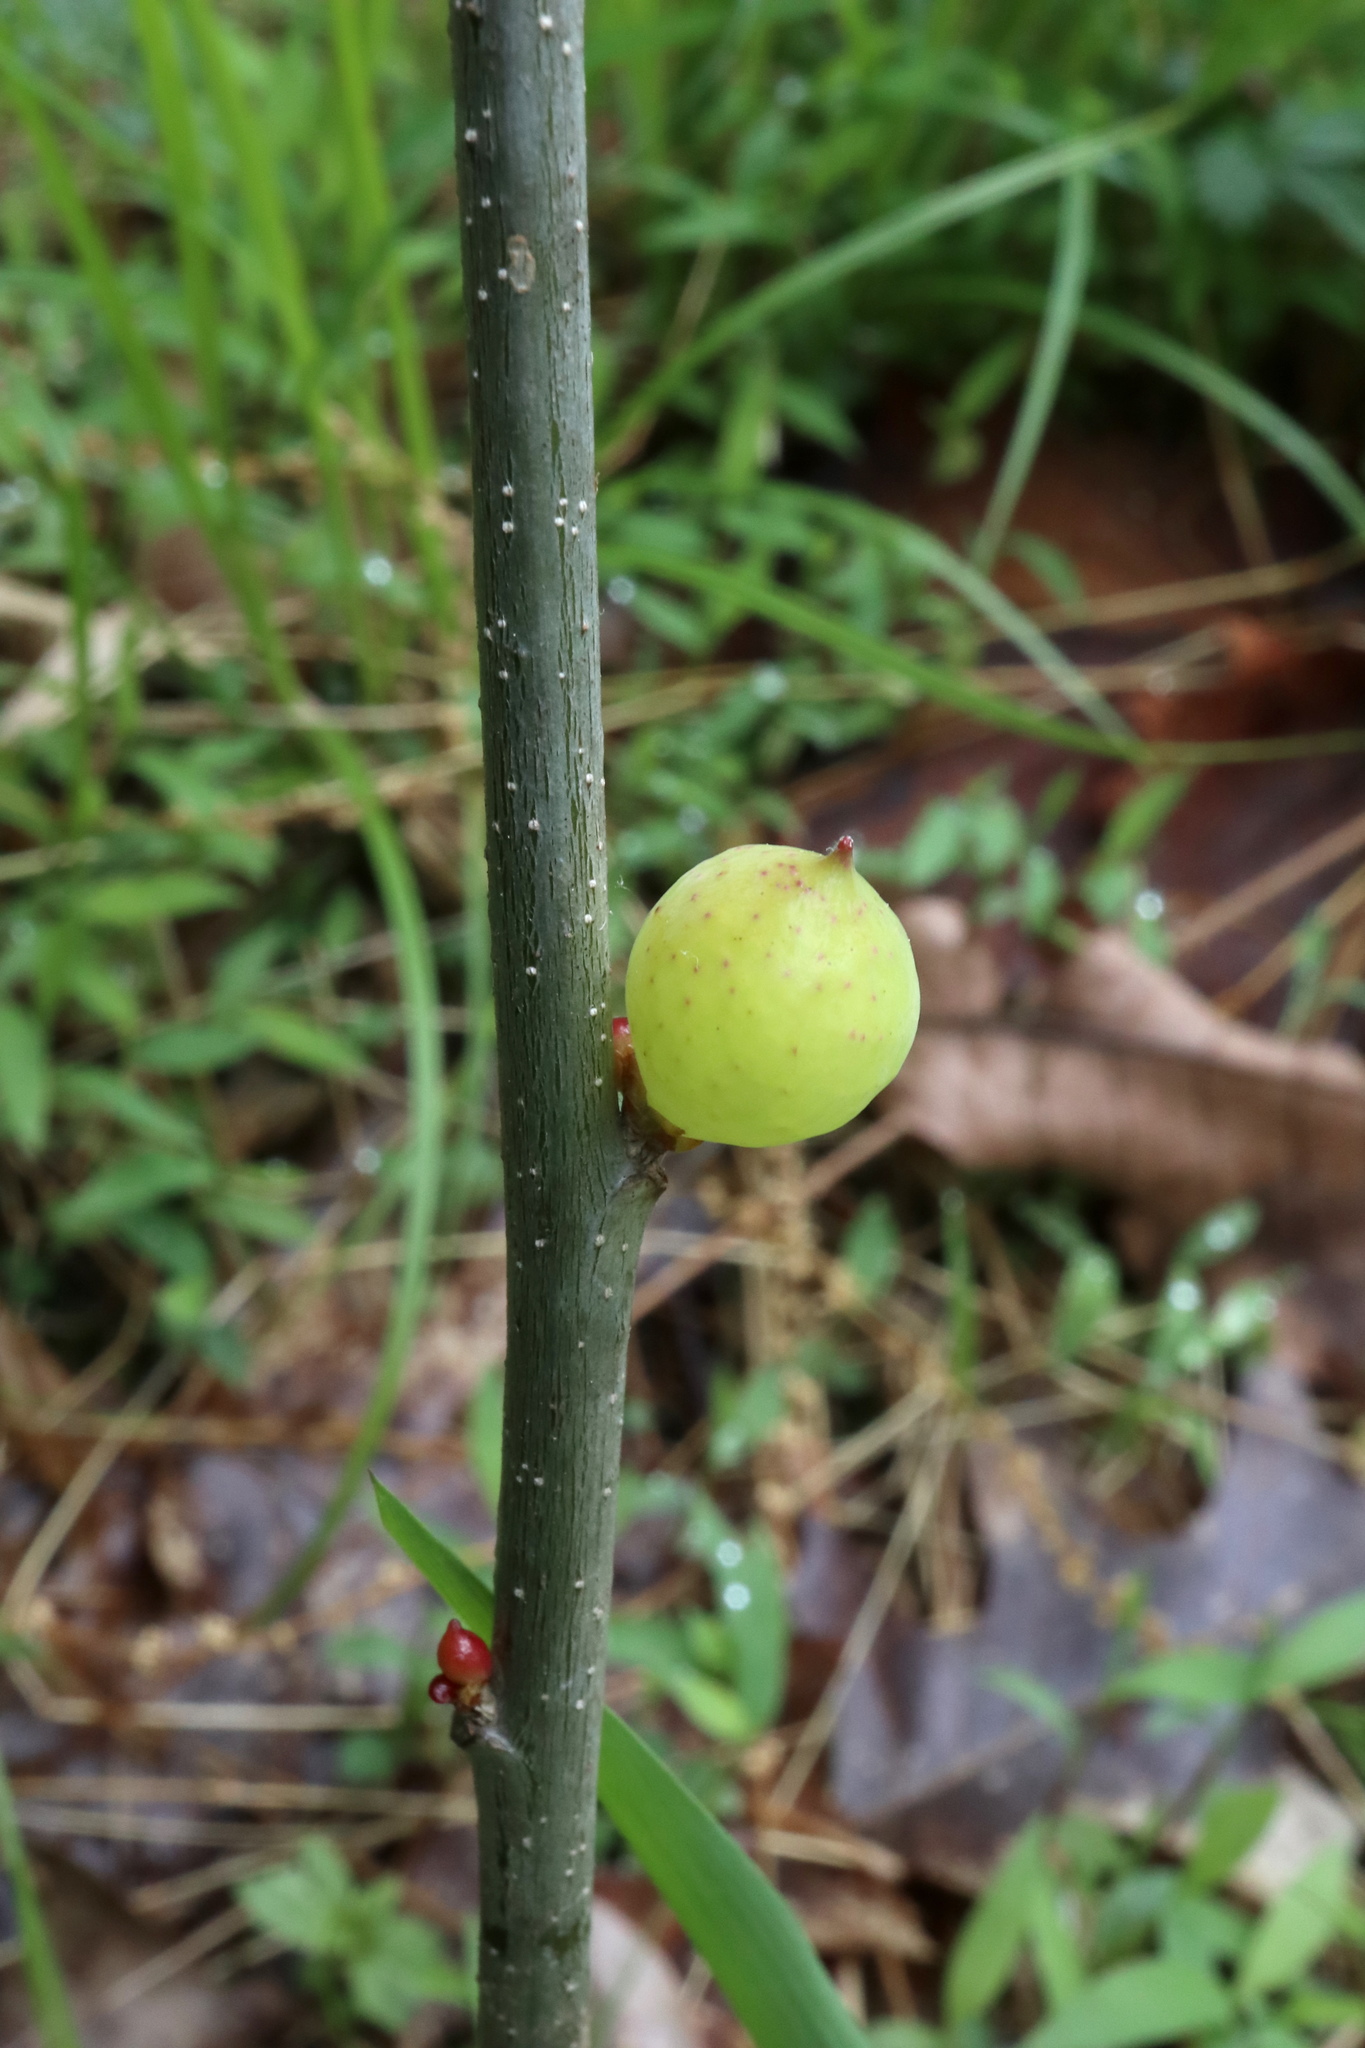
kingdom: Animalia
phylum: Arthropoda
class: Insecta
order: Hymenoptera
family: Cynipidae
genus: Amphibolips
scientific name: Amphibolips
